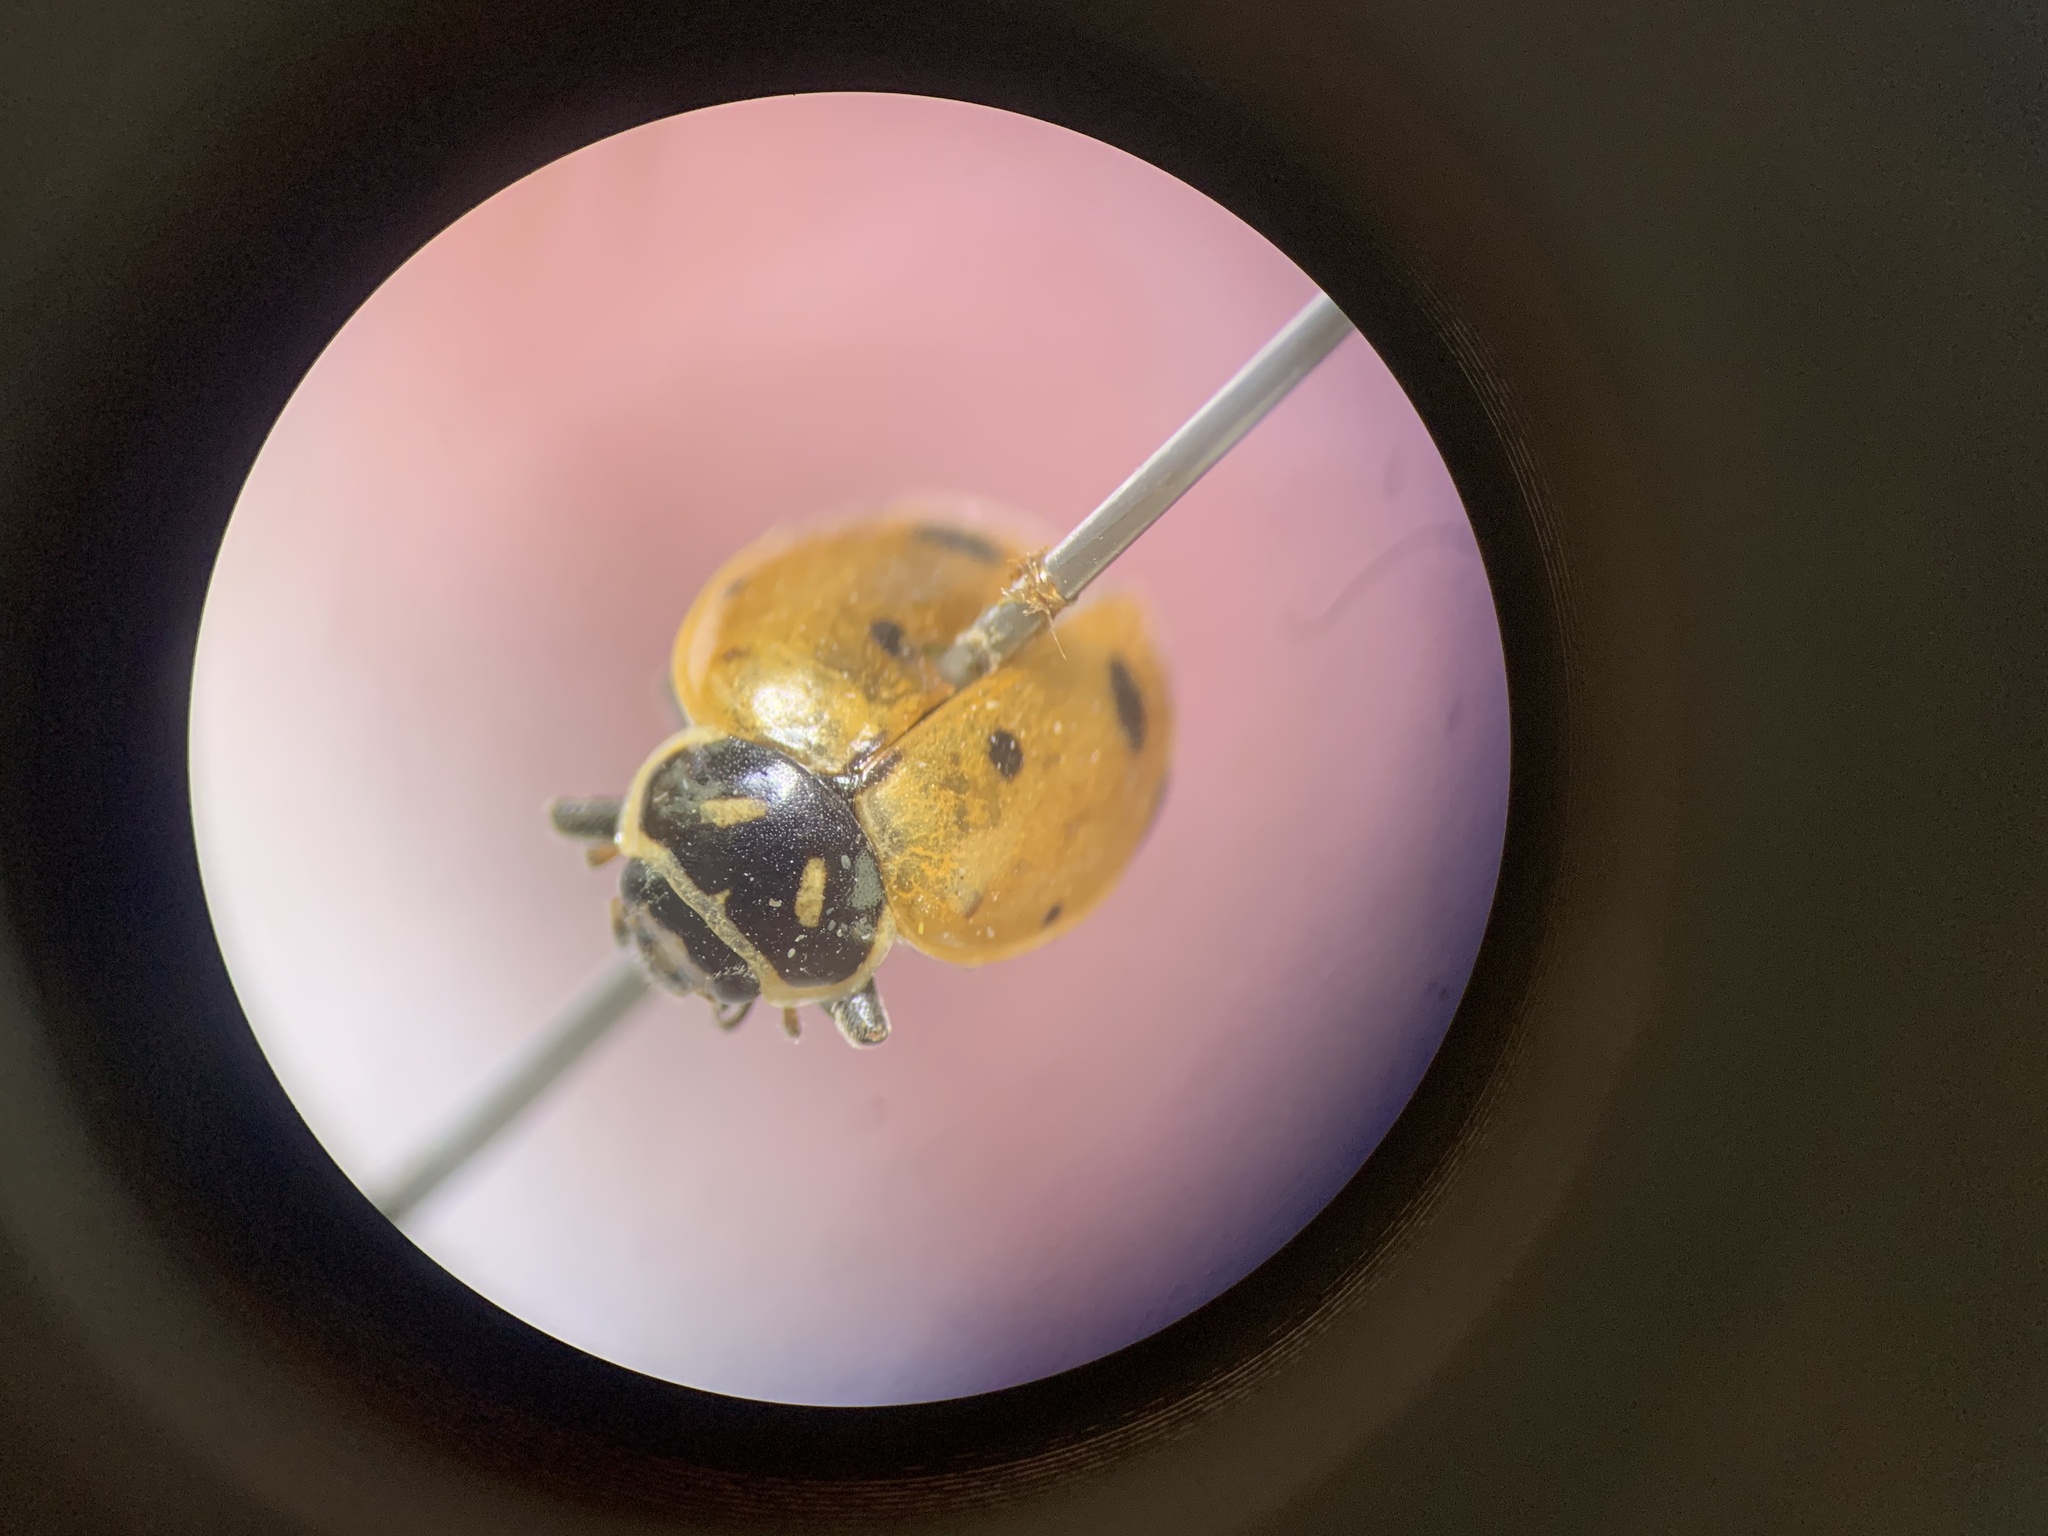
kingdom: Animalia
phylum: Arthropoda
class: Insecta
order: Coleoptera
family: Coccinellidae
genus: Hippodamia
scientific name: Hippodamia convergens
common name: Convergent lady beetle
